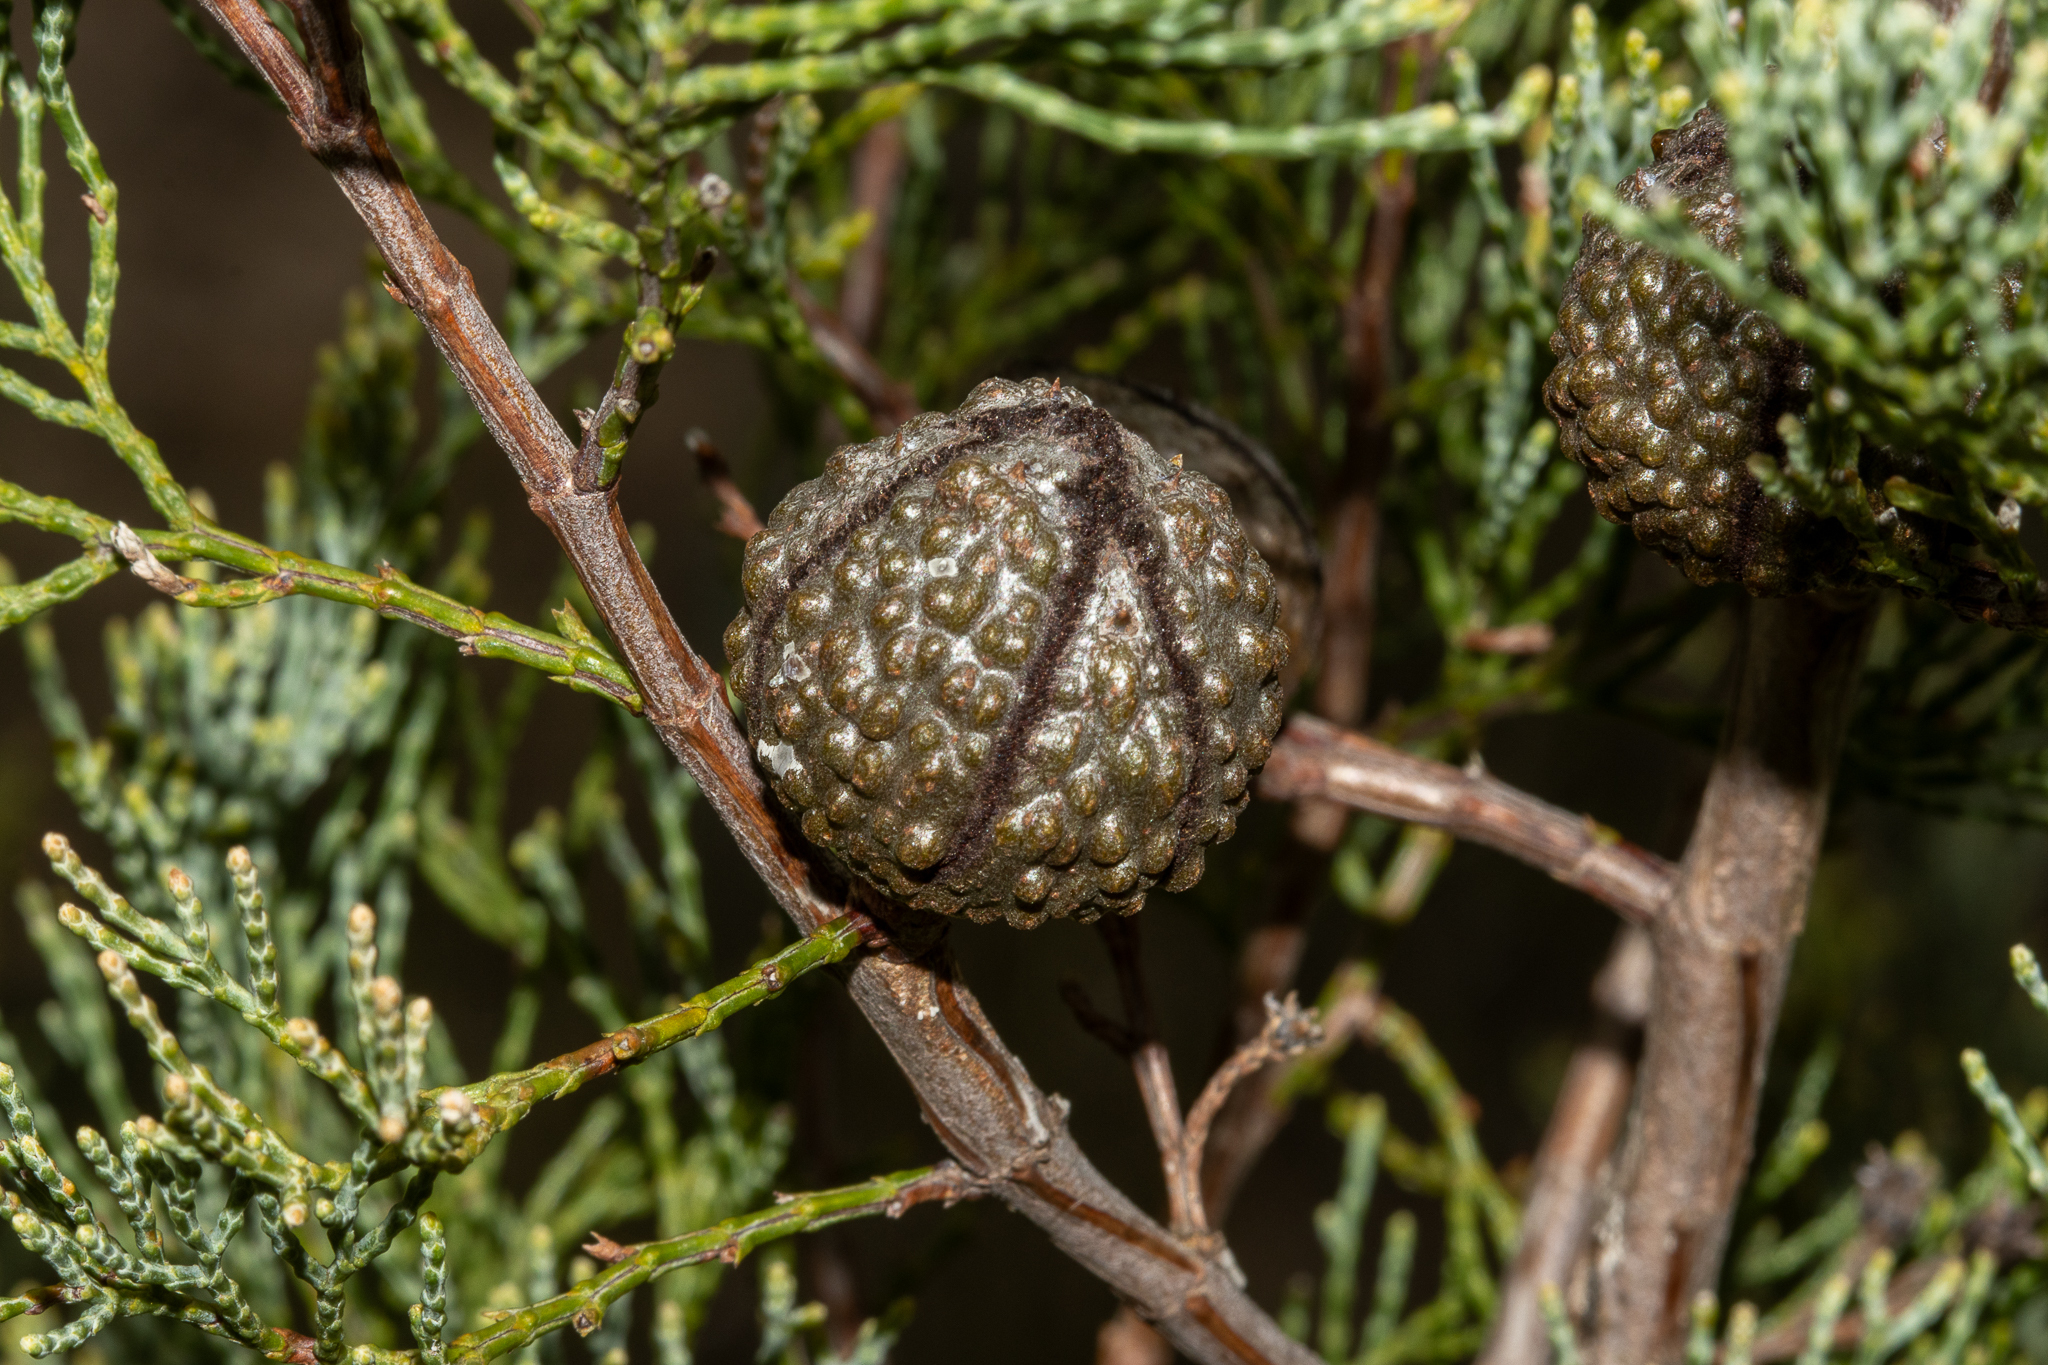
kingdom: Plantae
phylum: Tracheophyta
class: Pinopsida
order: Pinales
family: Cupressaceae
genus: Callitris
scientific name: Callitris verrucosa
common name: Scrub cypress-pine
